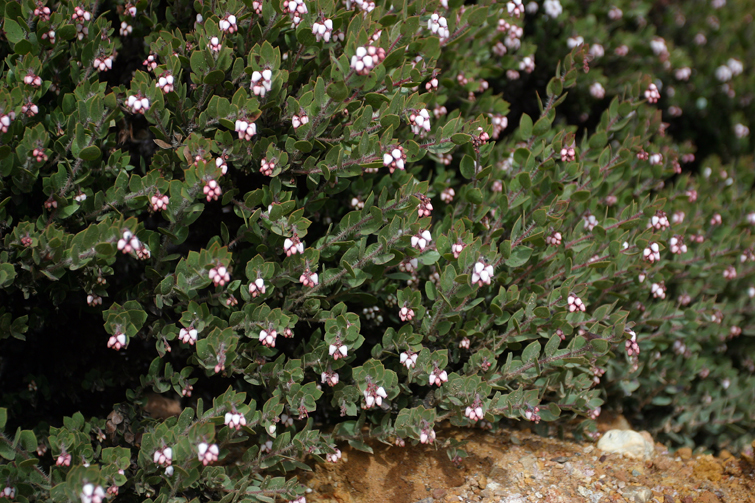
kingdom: Plantae
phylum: Tracheophyta
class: Magnoliopsida
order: Ericales
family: Ericaceae
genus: Arctostaphylos
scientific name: Arctostaphylos myrtifolia
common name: Ione manzanita
